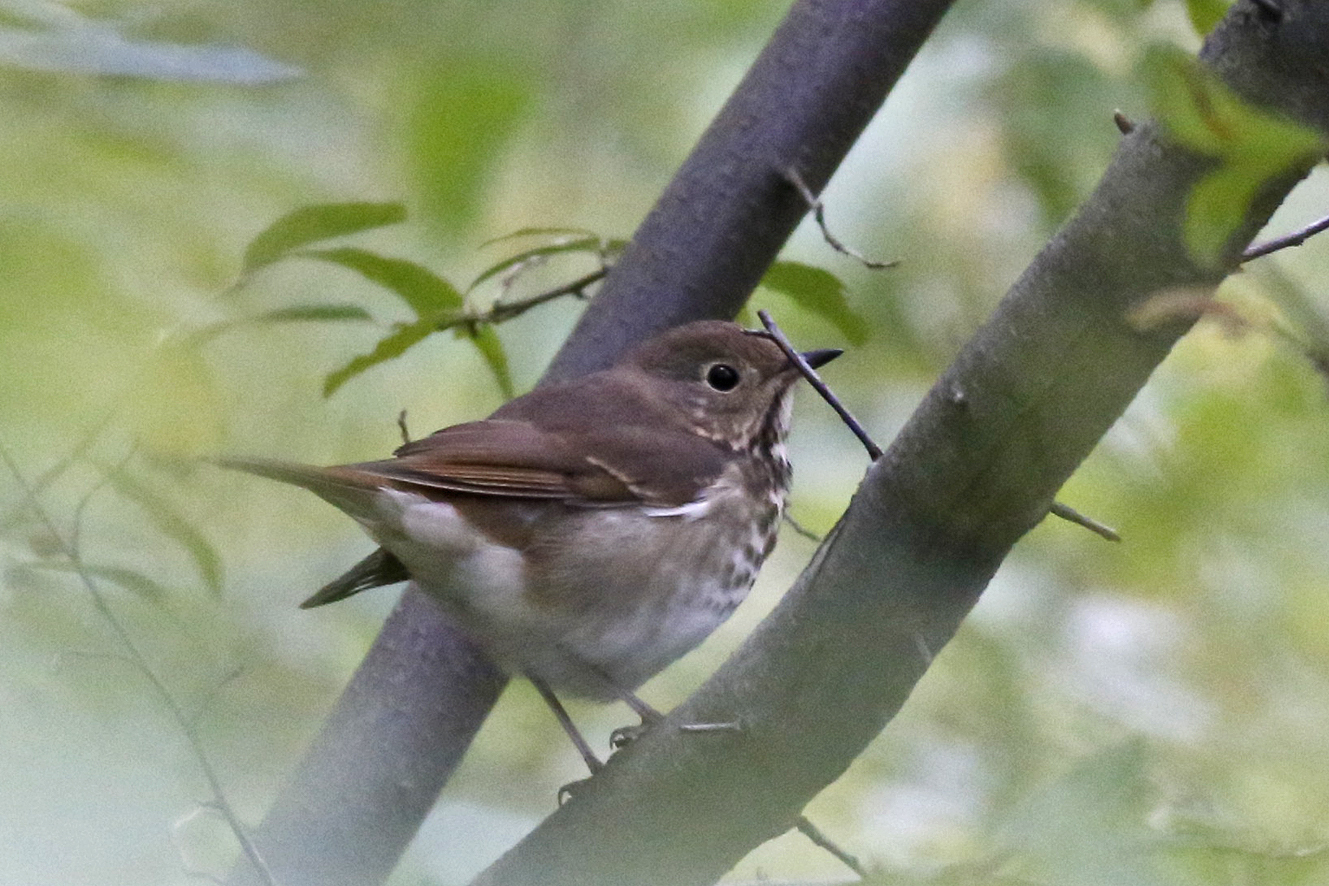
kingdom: Animalia
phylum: Chordata
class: Aves
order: Passeriformes
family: Turdidae
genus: Catharus
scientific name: Catharus guttatus
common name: Hermit thrush
